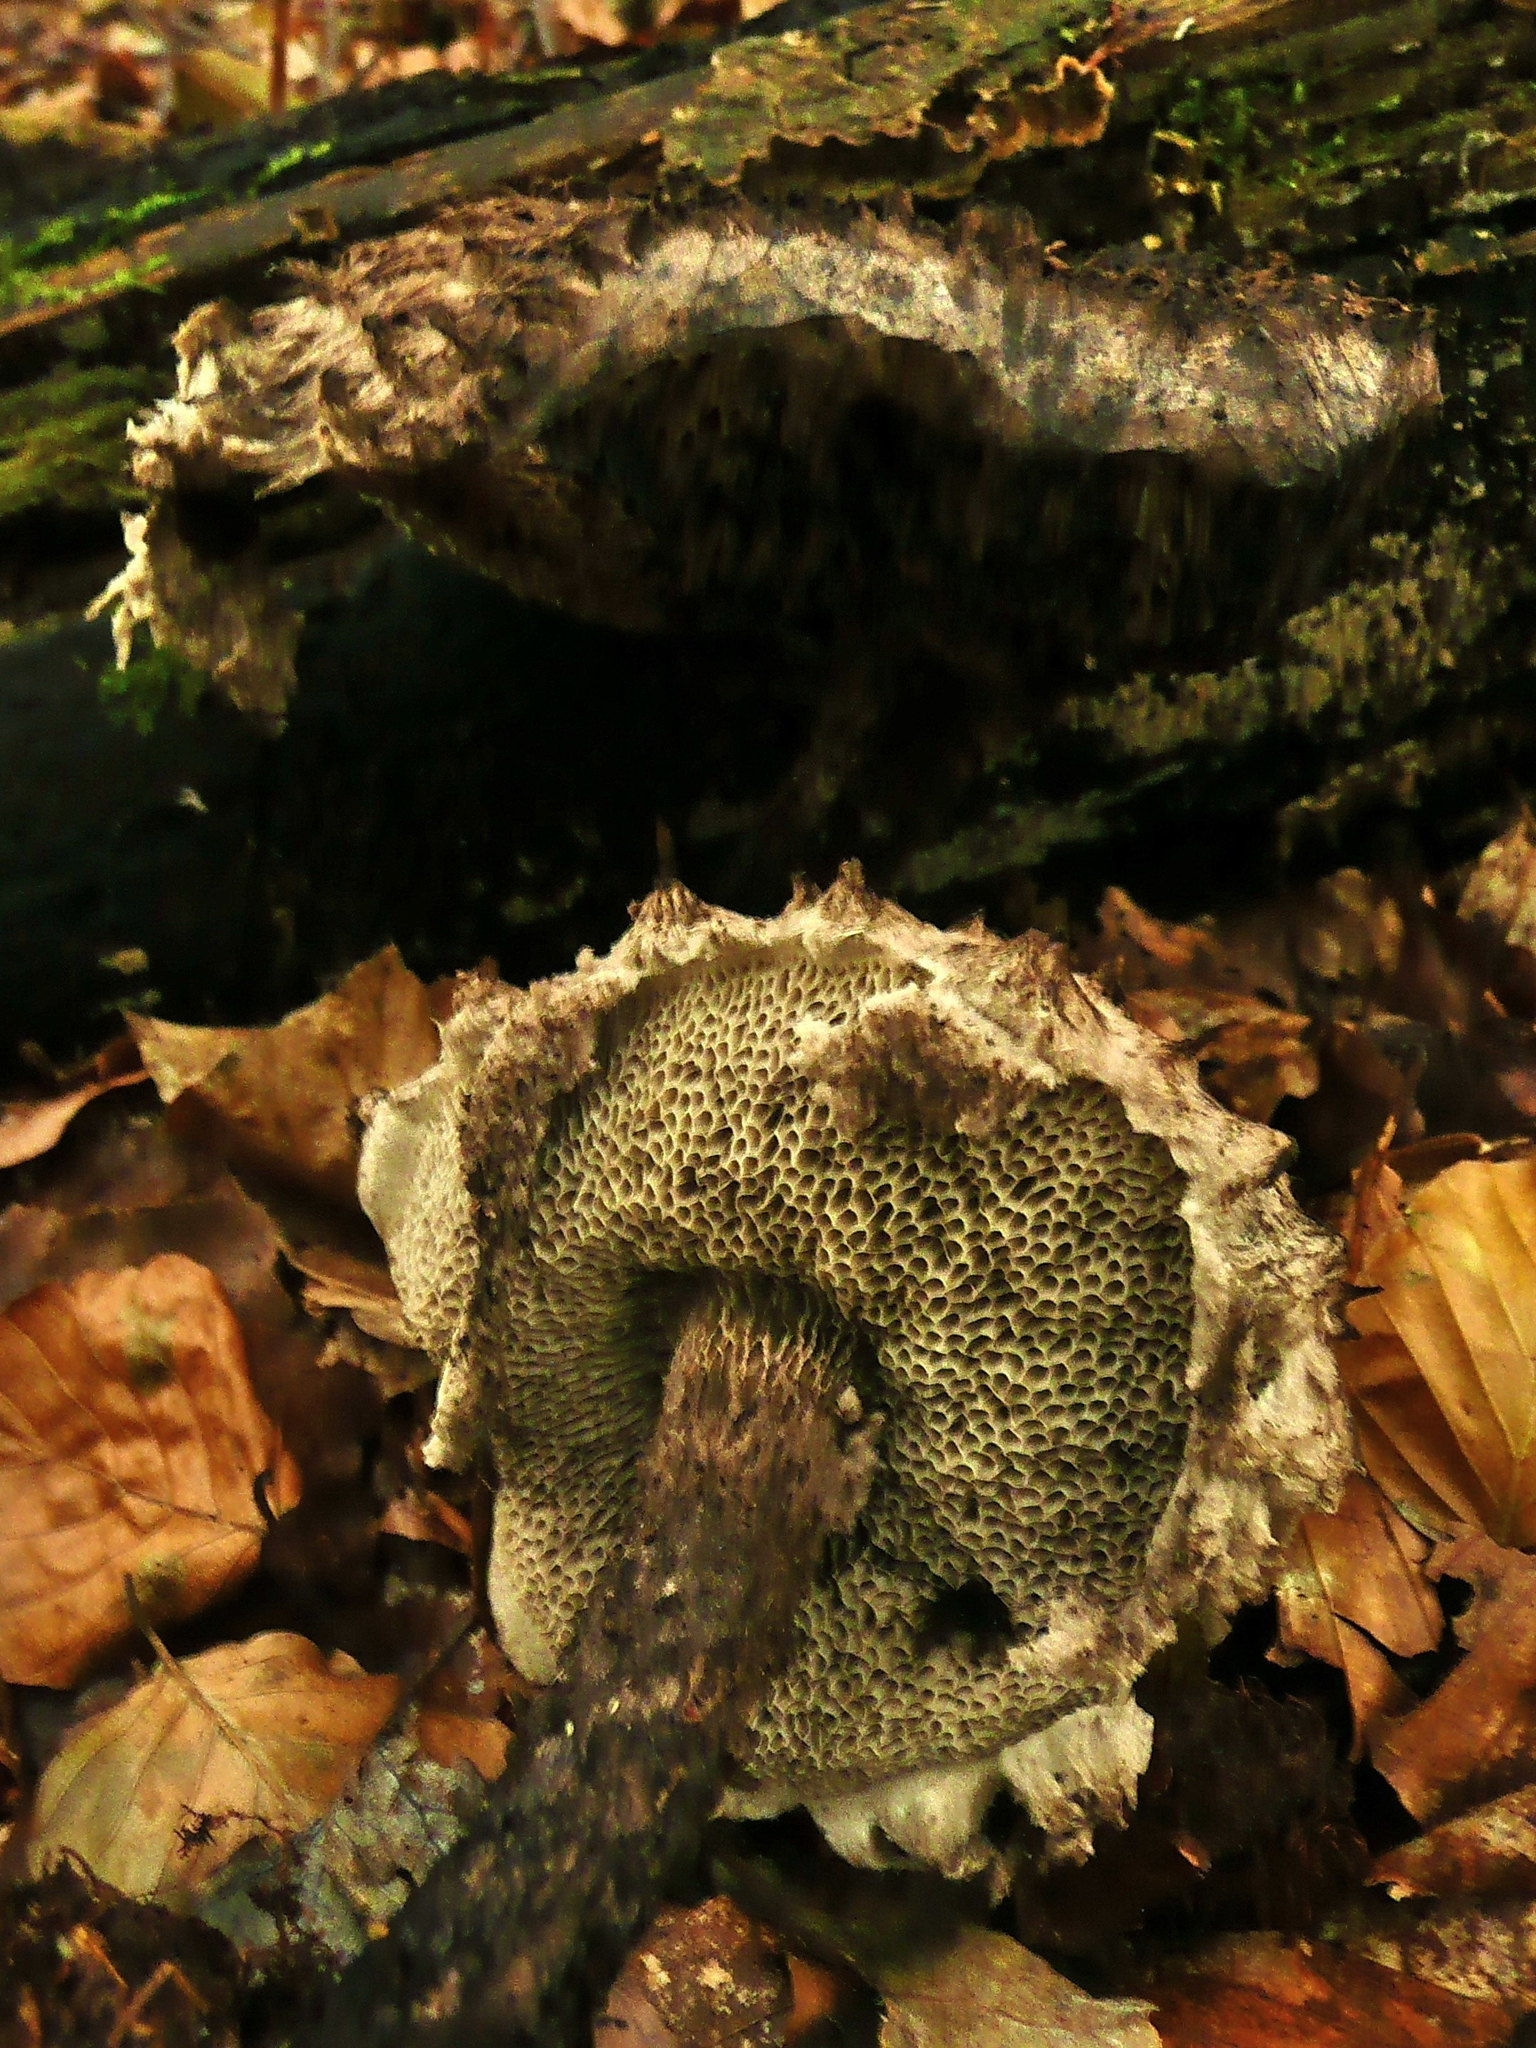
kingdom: Fungi
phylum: Basidiomycota
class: Agaricomycetes
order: Boletales
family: Boletaceae
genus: Strobilomyces
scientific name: Strobilomyces strobilaceus
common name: Old man of the woods
